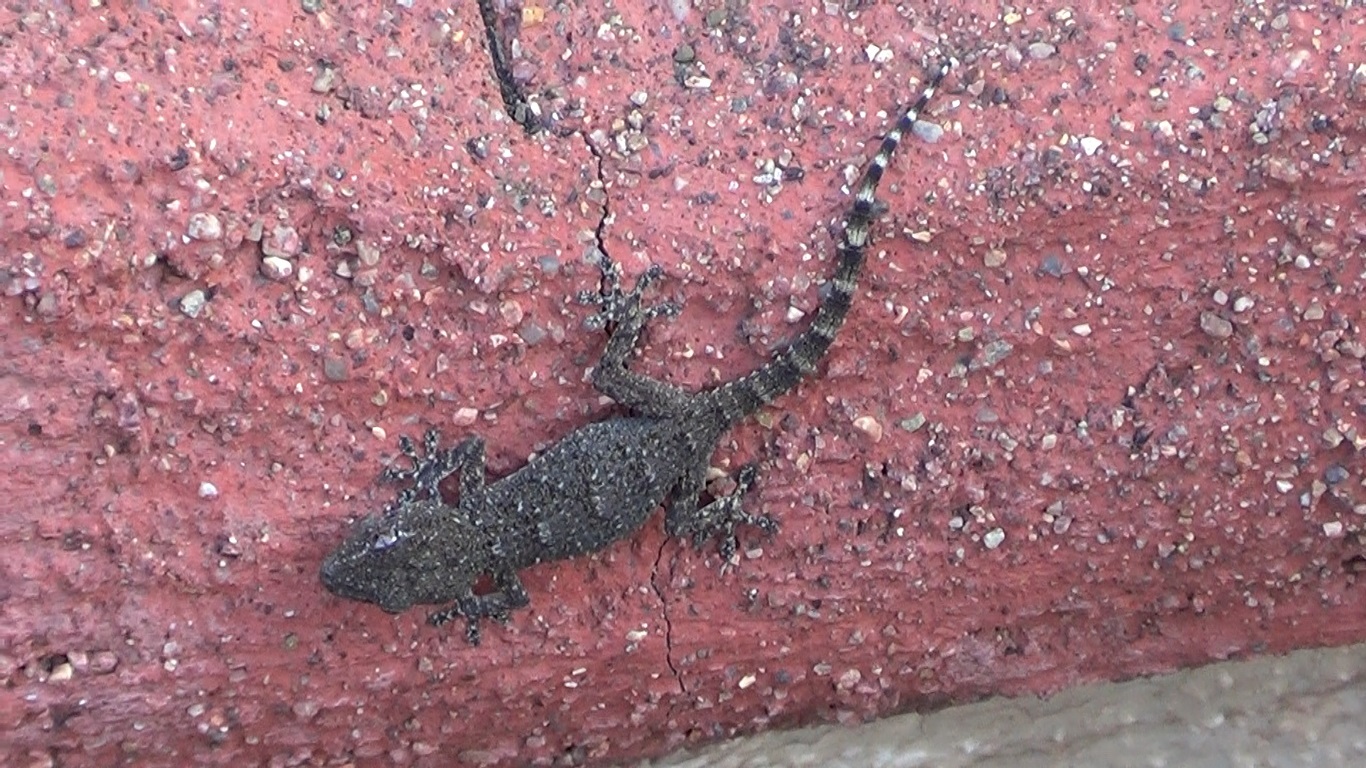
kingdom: Animalia
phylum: Chordata
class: Squamata
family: Phyllodactylidae
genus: Tarentola
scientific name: Tarentola mauritanica
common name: Moorish gecko
